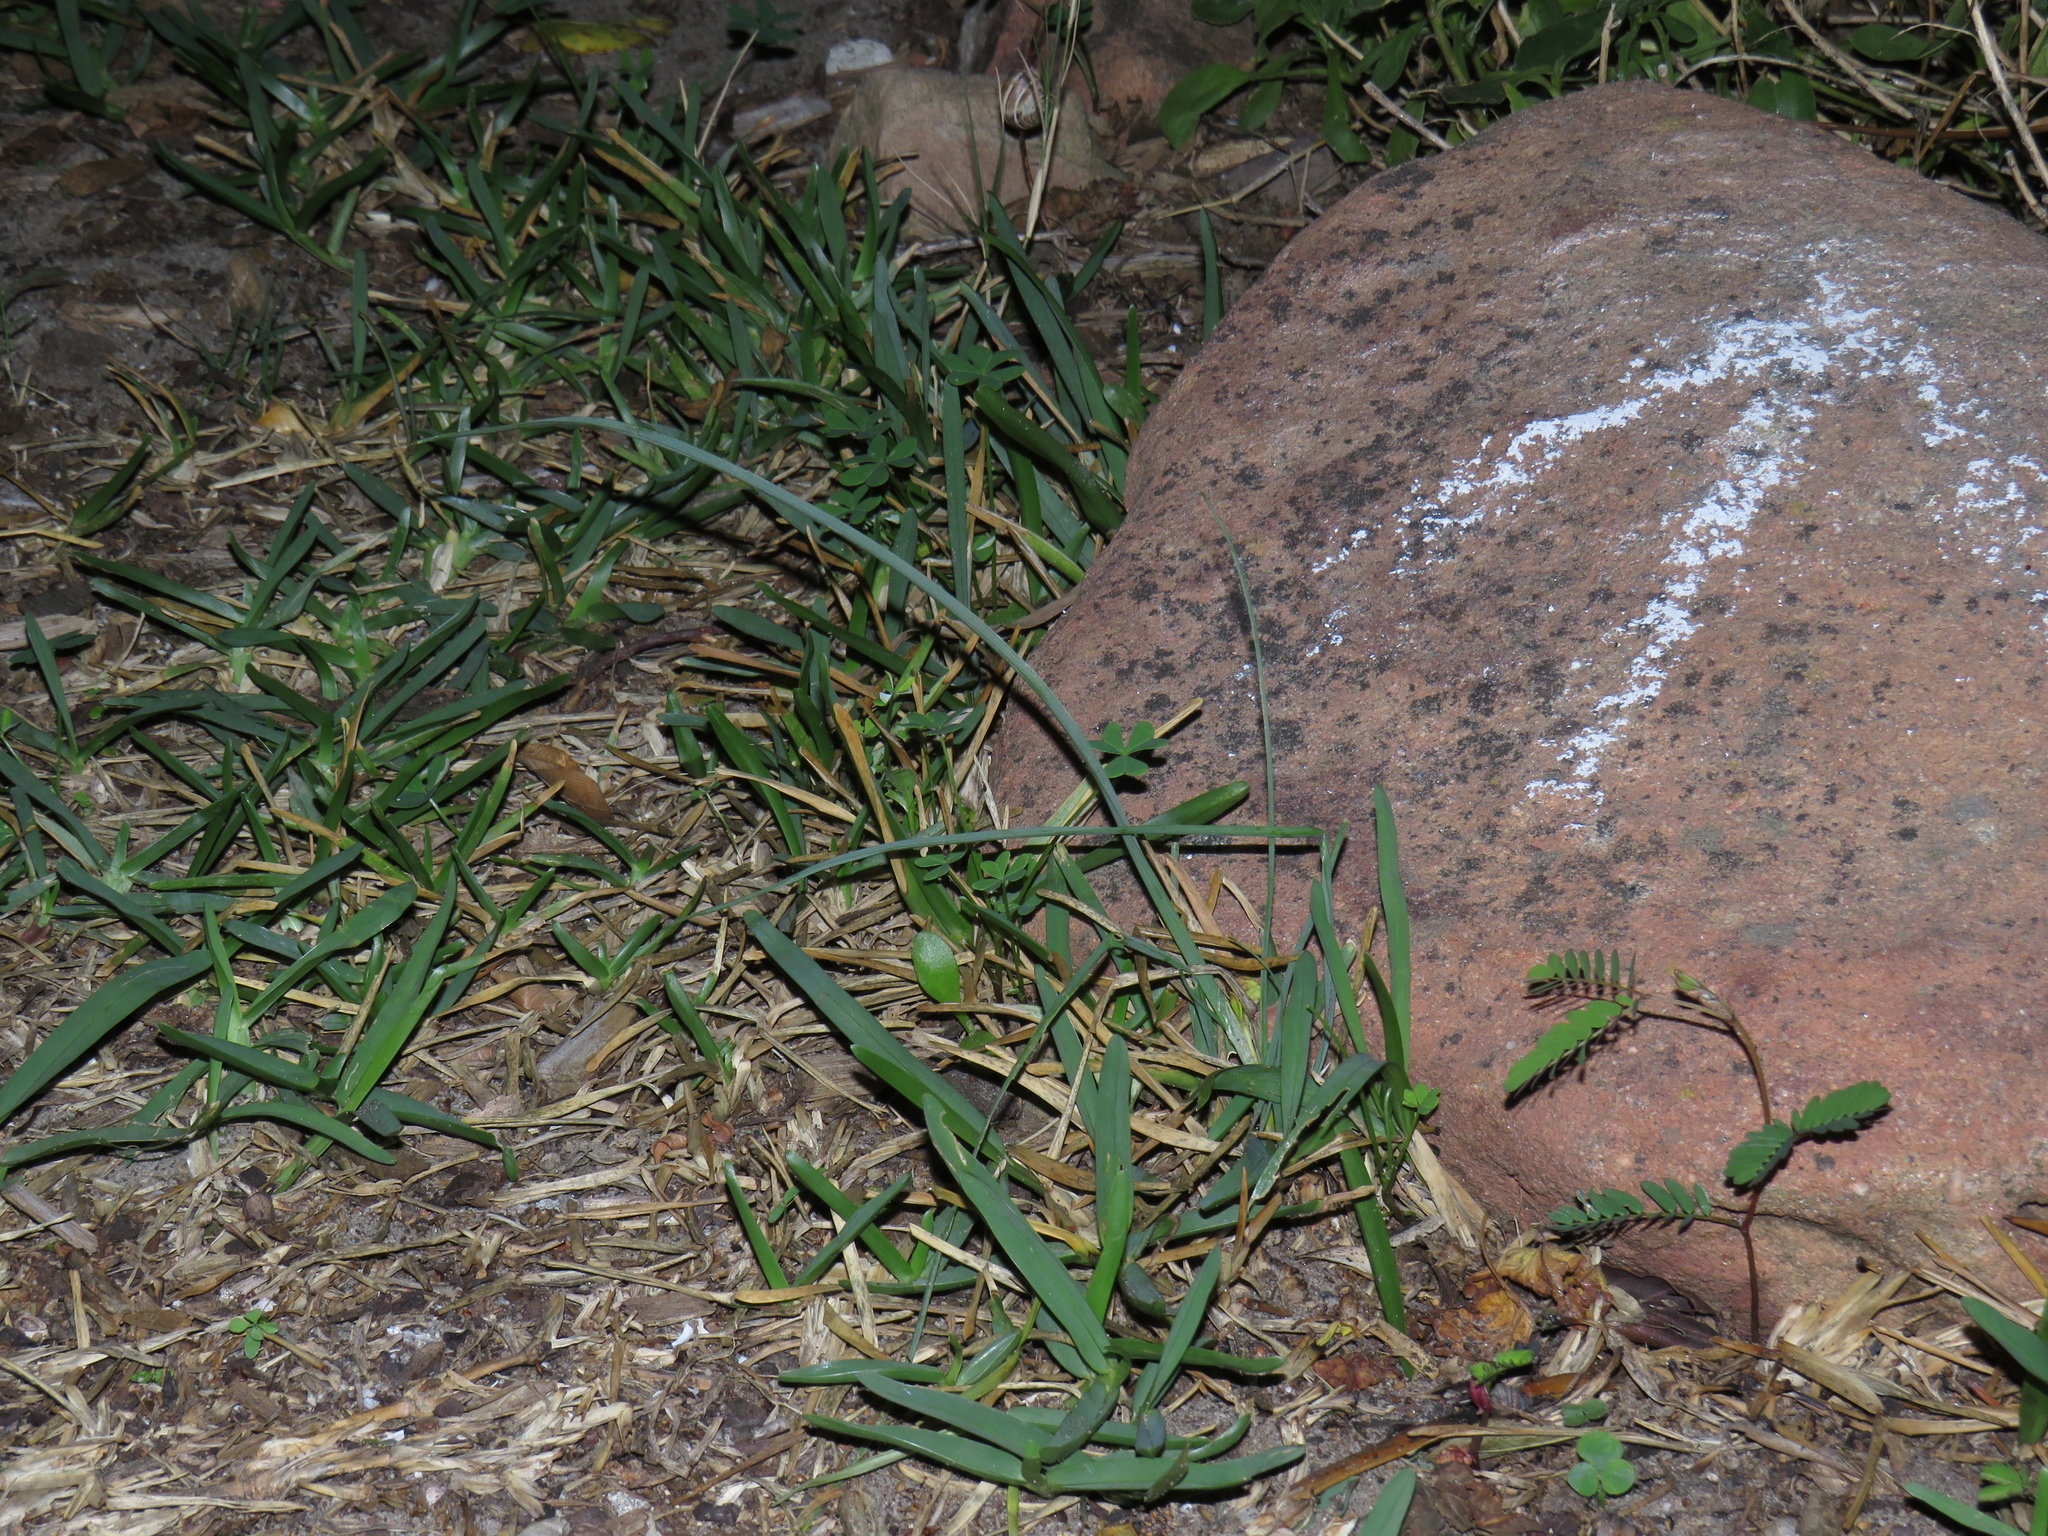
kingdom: Plantae
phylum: Tracheophyta
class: Liliopsida
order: Asparagales
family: Asphodelaceae
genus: Trachyandra
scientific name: Trachyandra ciliata
